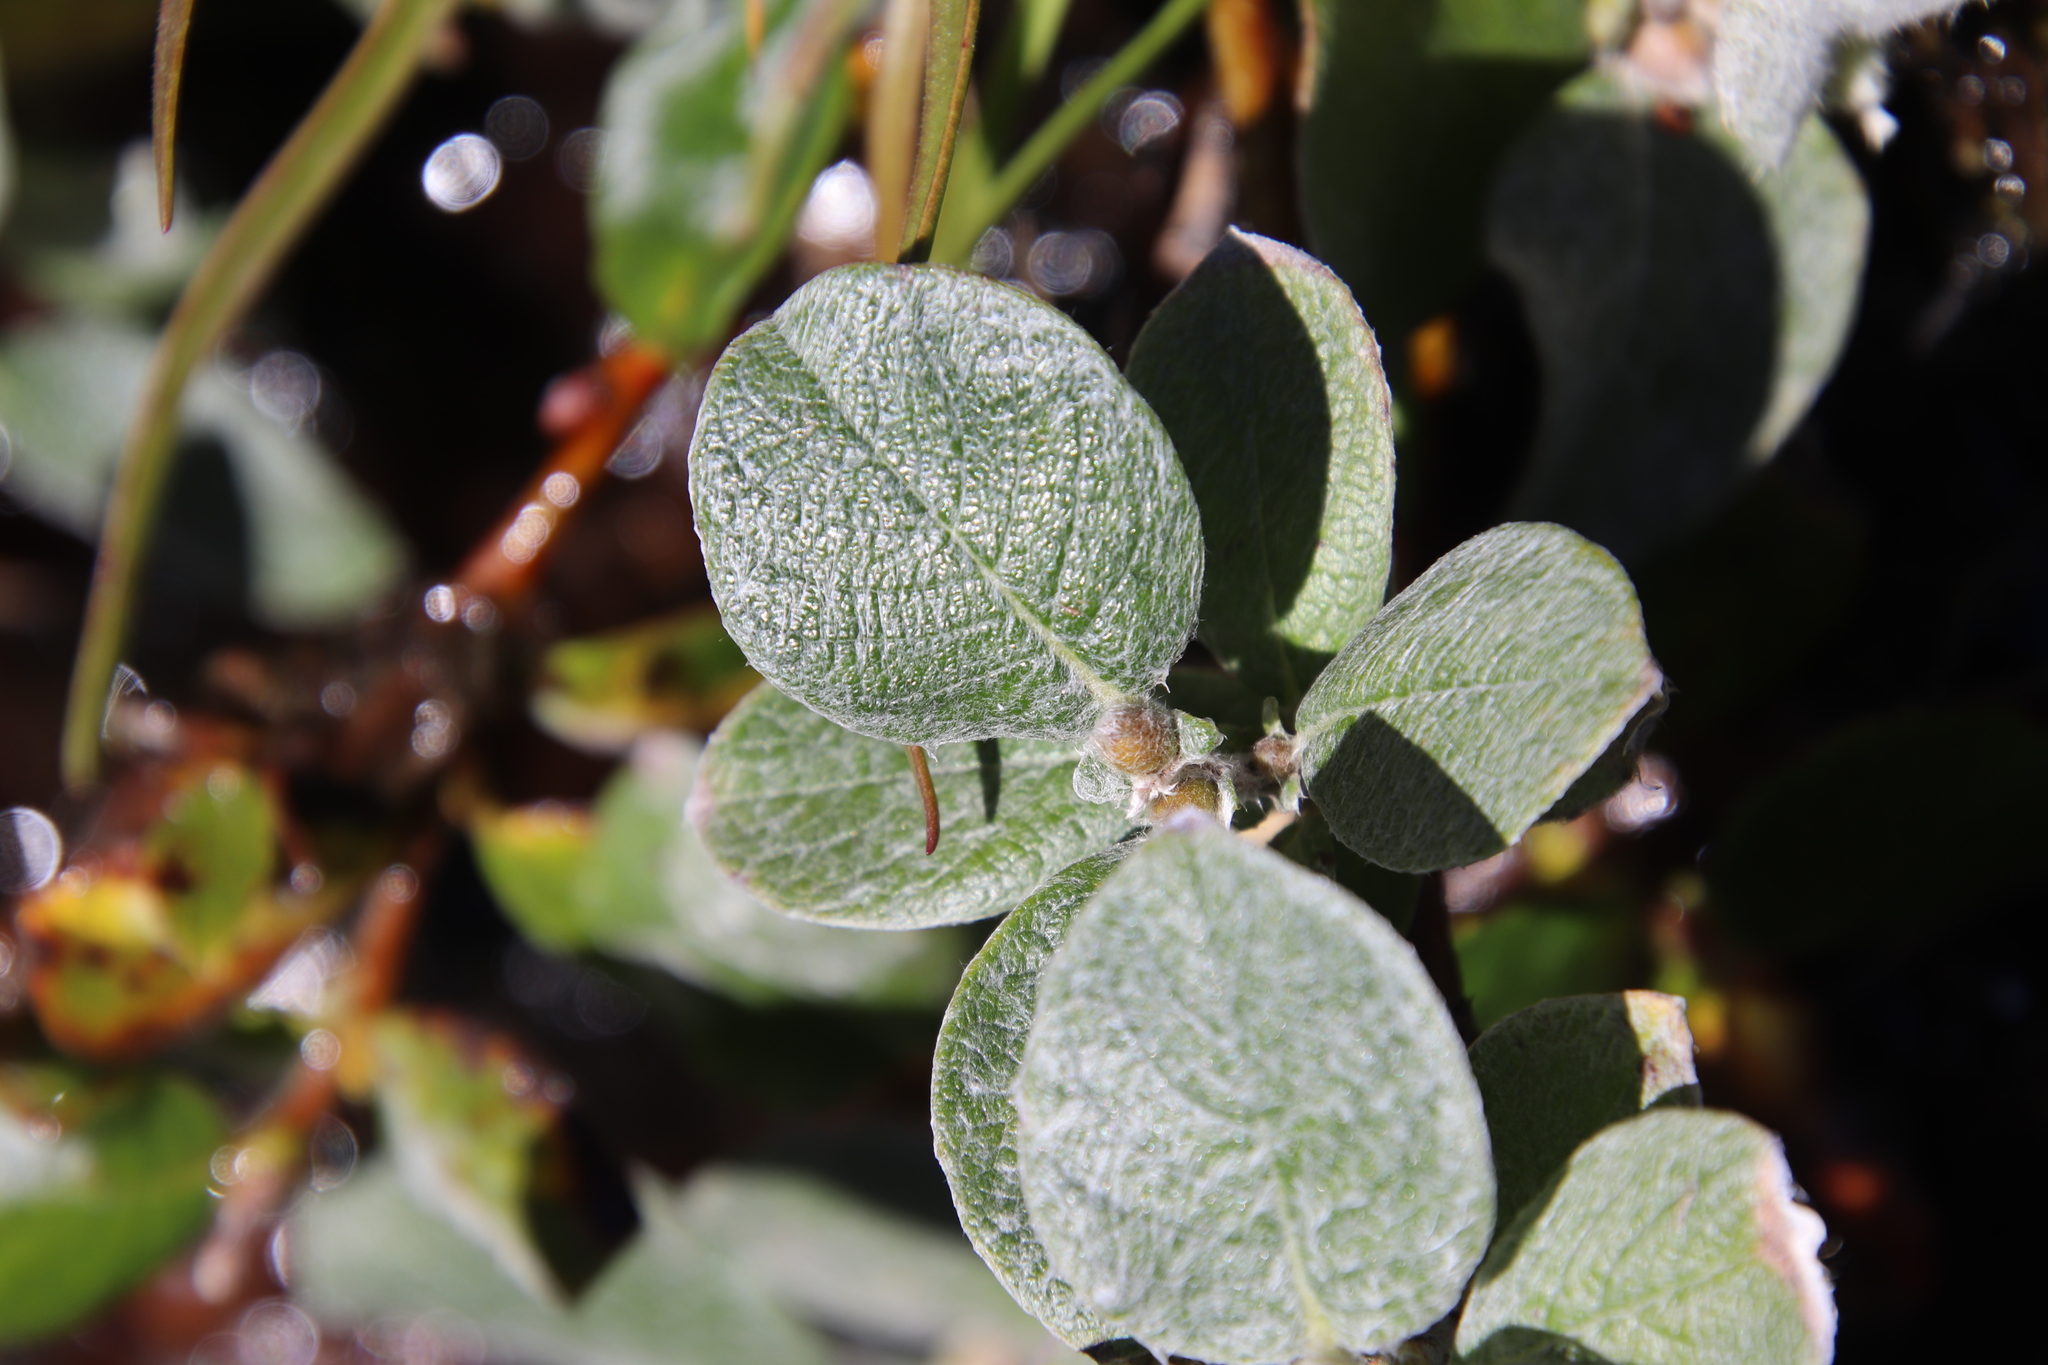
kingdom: Plantae
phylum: Tracheophyta
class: Magnoliopsida
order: Malpighiales
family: Salicaceae
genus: Salix
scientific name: Salix lanata
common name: Woolly willow
